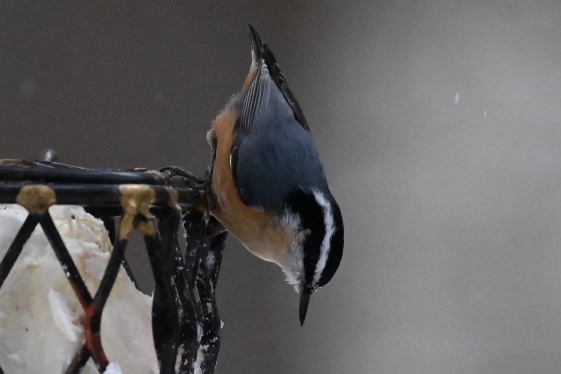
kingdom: Animalia
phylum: Chordata
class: Aves
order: Passeriformes
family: Sittidae
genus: Sitta
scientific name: Sitta canadensis
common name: Red-breasted nuthatch
